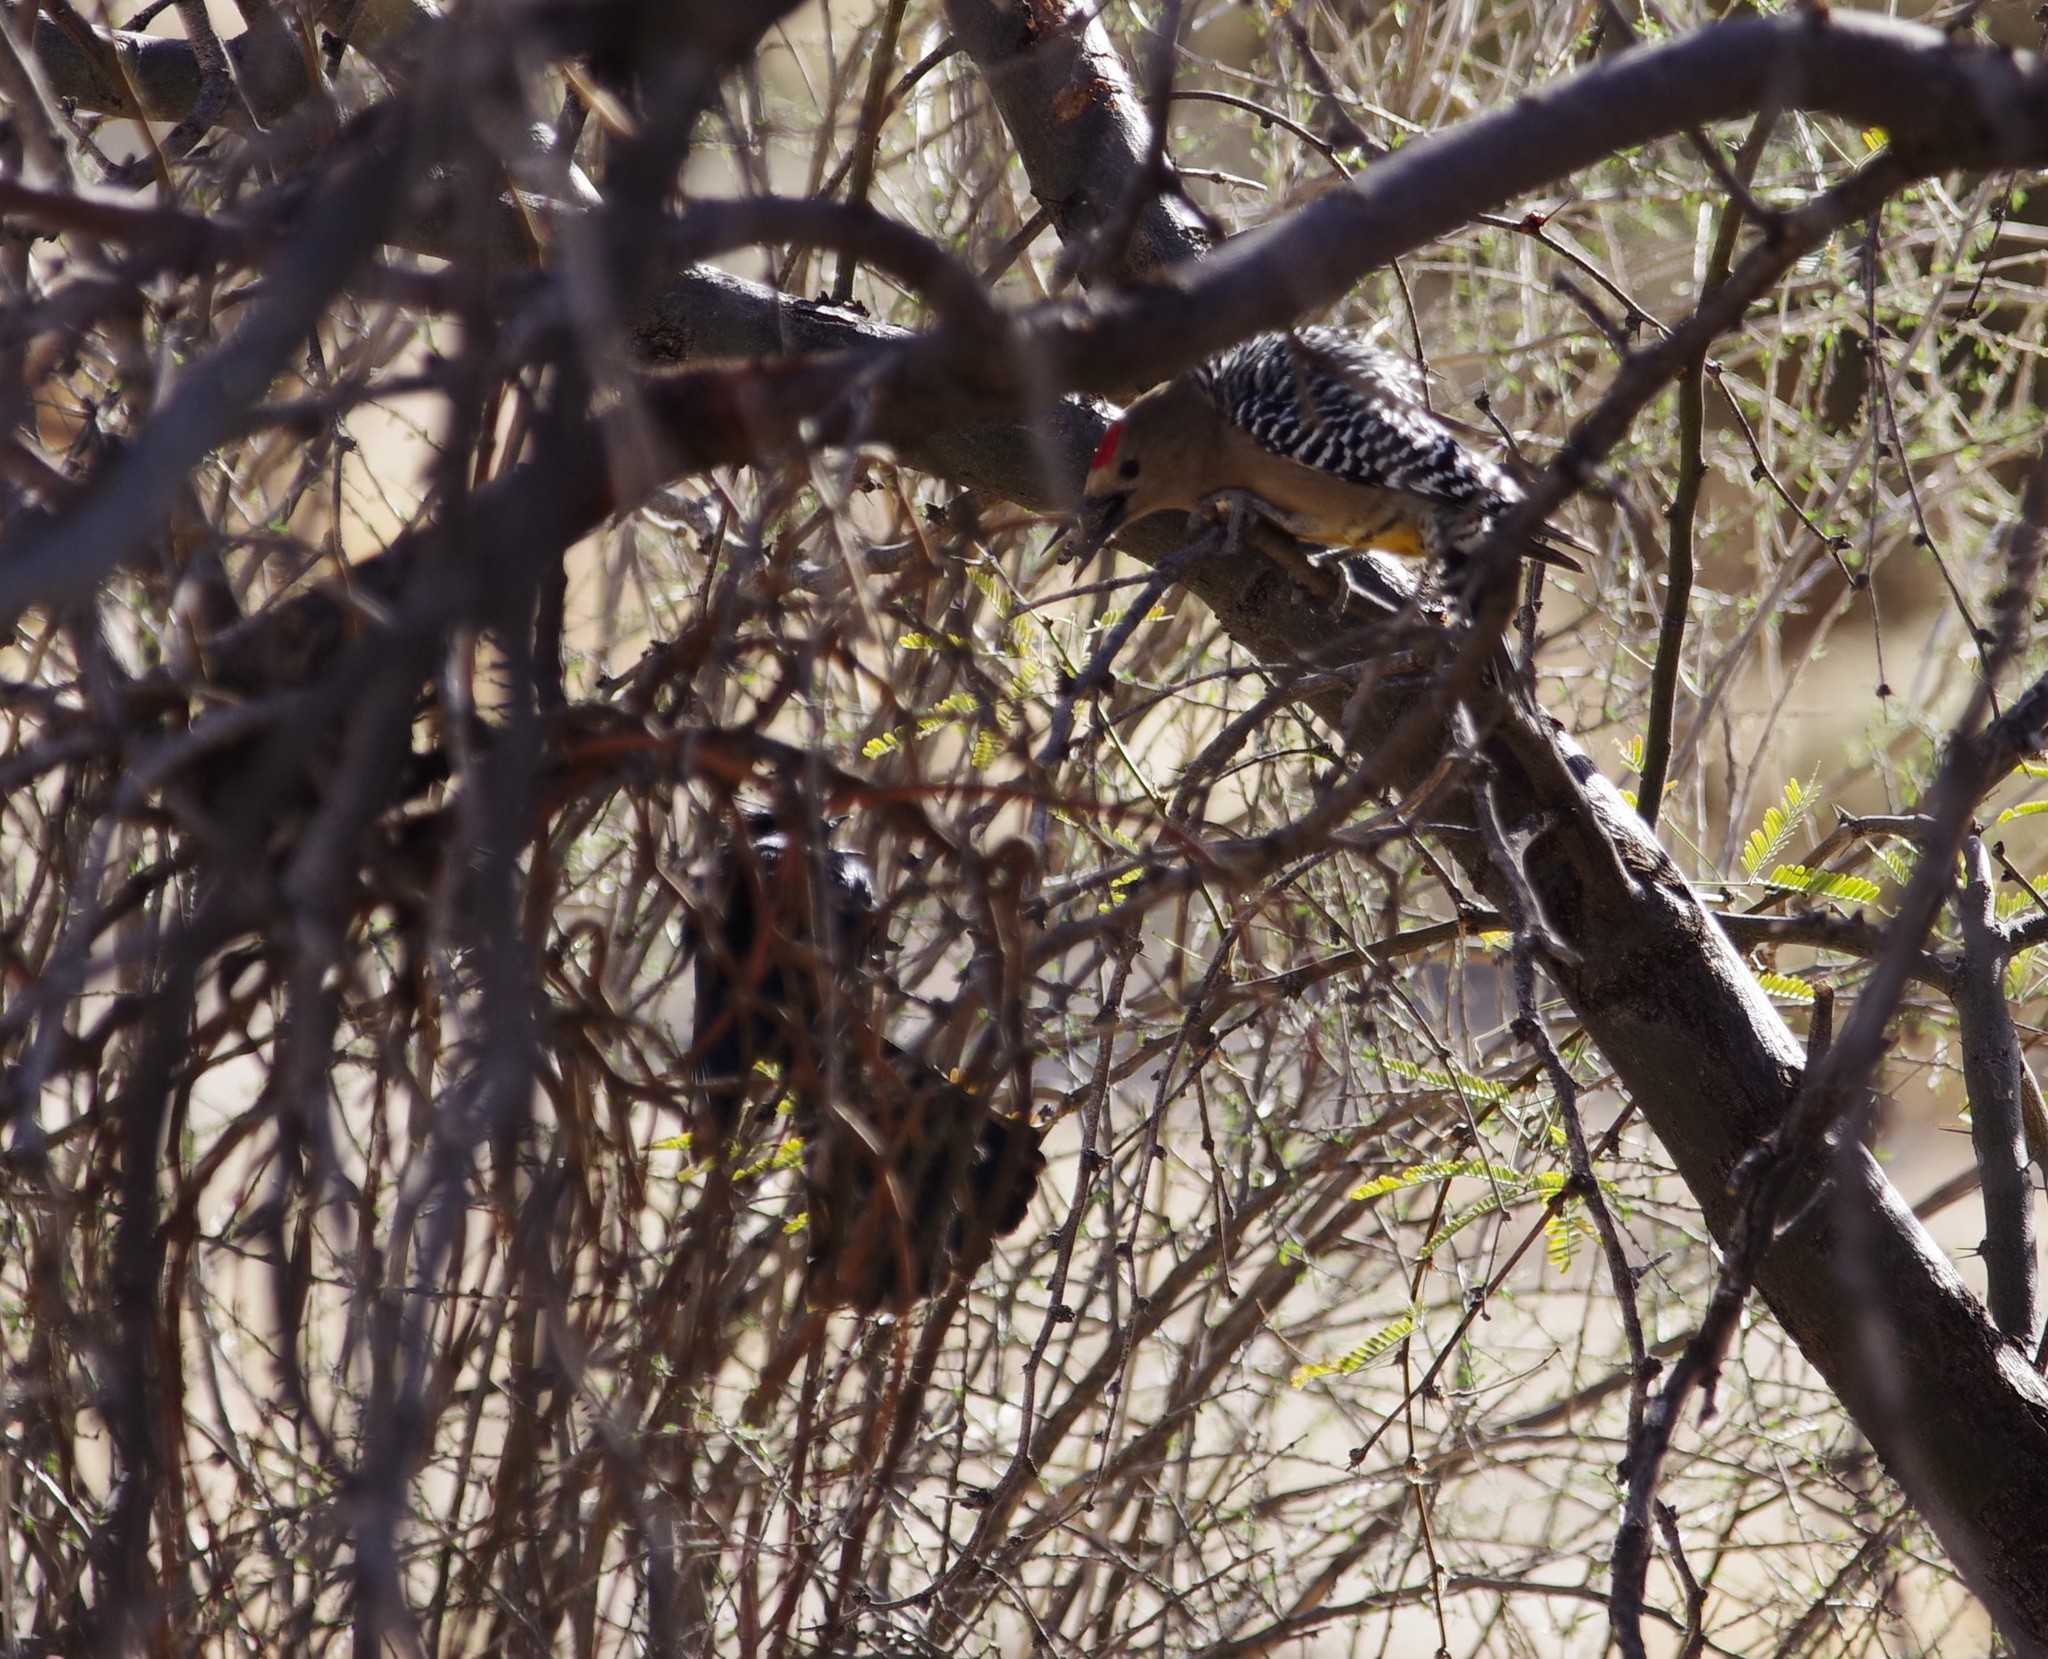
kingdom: Animalia
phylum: Chordata
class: Aves
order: Piciformes
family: Picidae
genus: Melanerpes
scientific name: Melanerpes uropygialis
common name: Gila woodpecker
